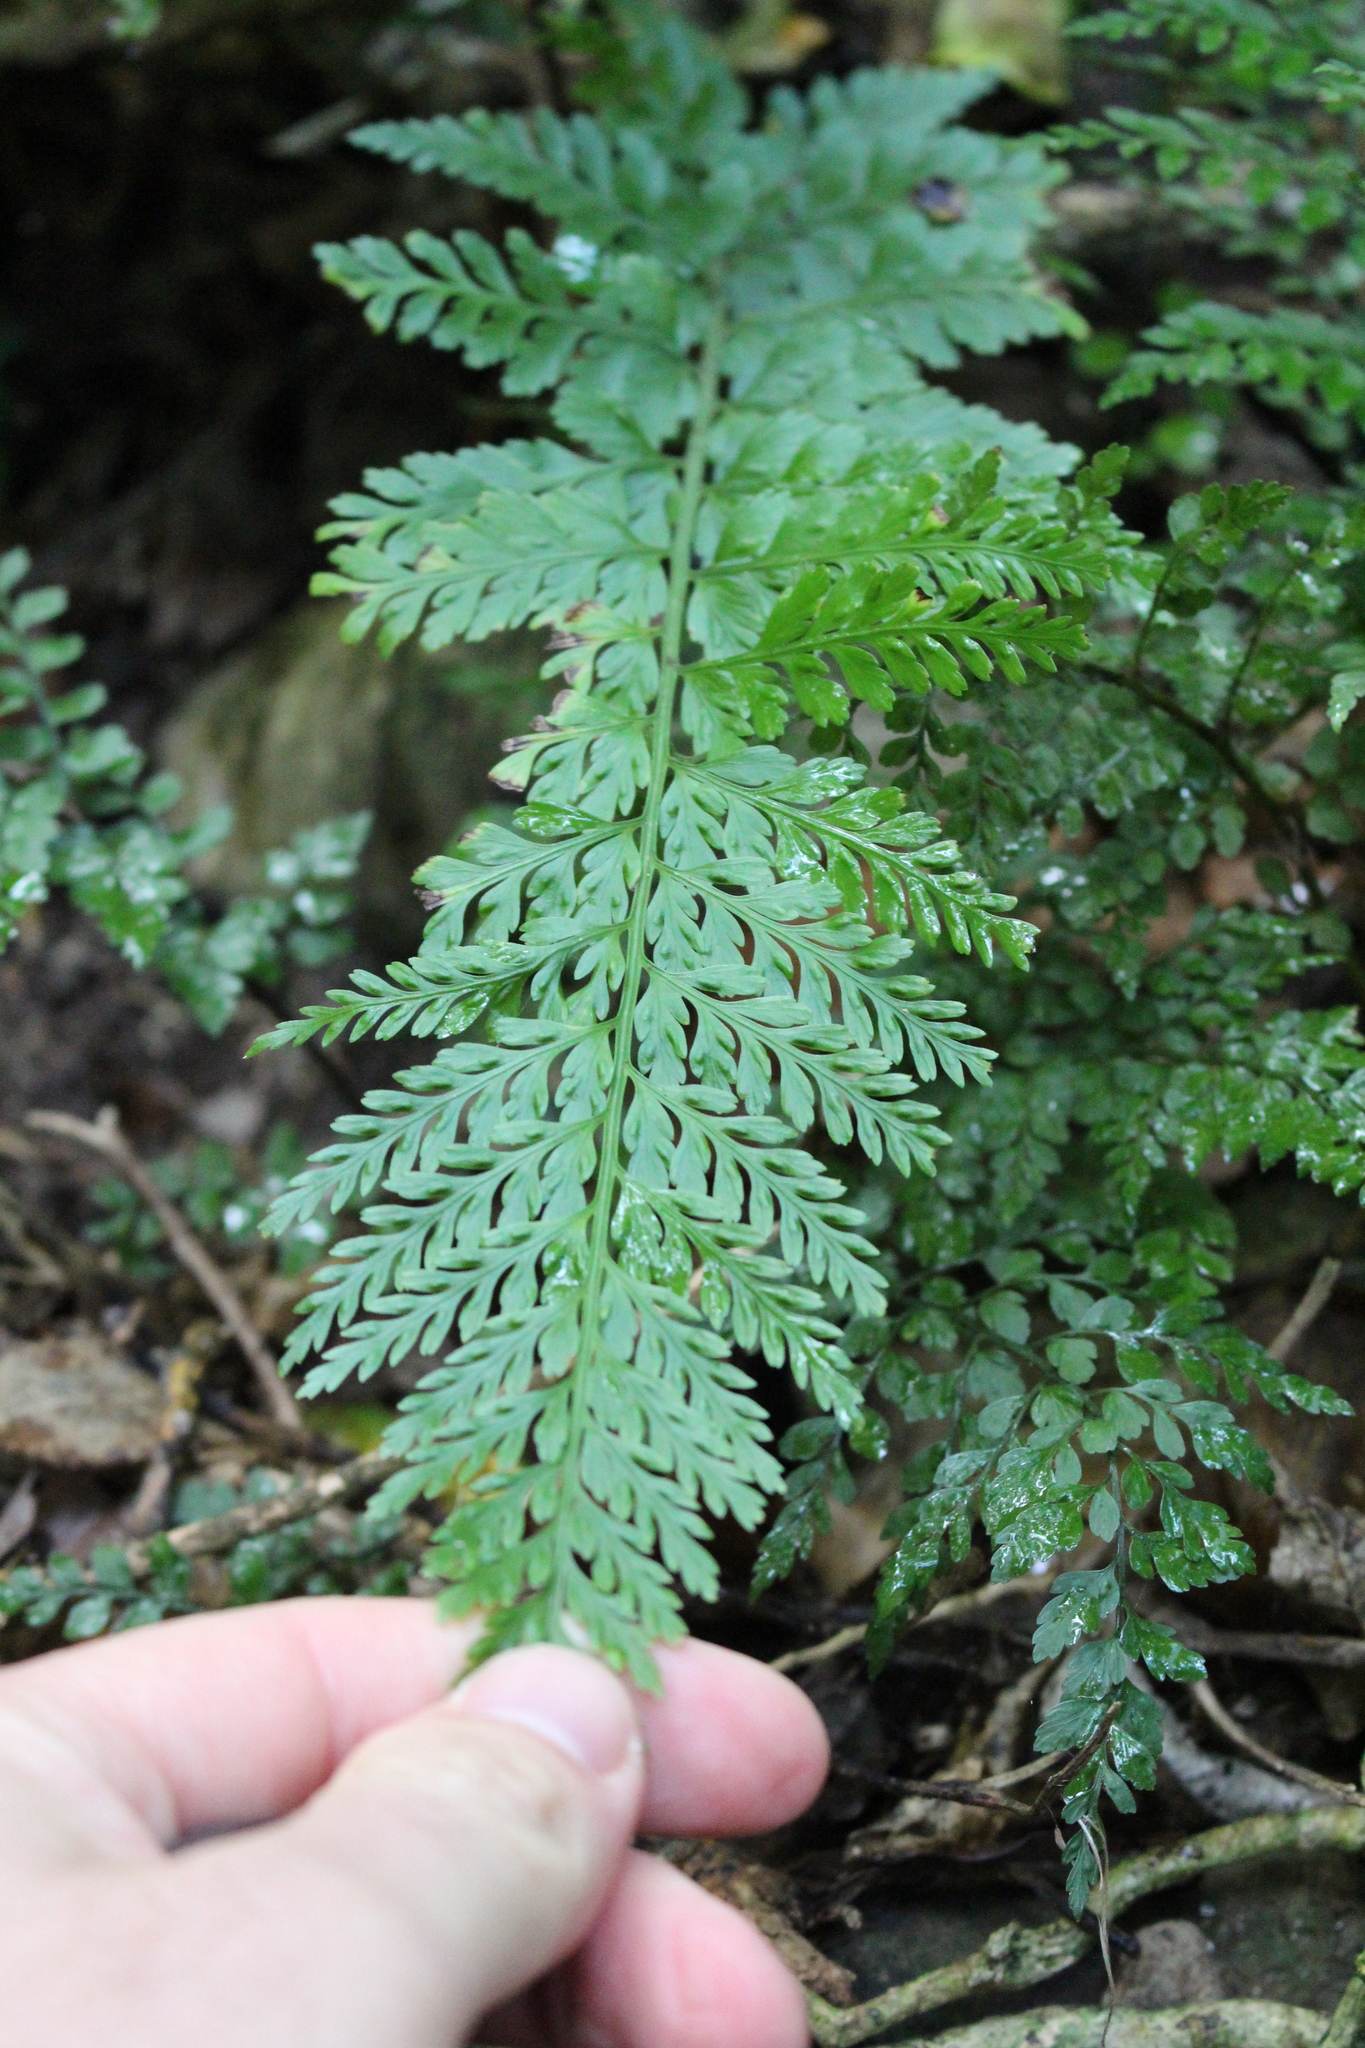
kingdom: Plantae
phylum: Tracheophyta
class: Polypodiopsida
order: Polypodiales
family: Aspleniaceae
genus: Asplenium
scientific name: Asplenium
